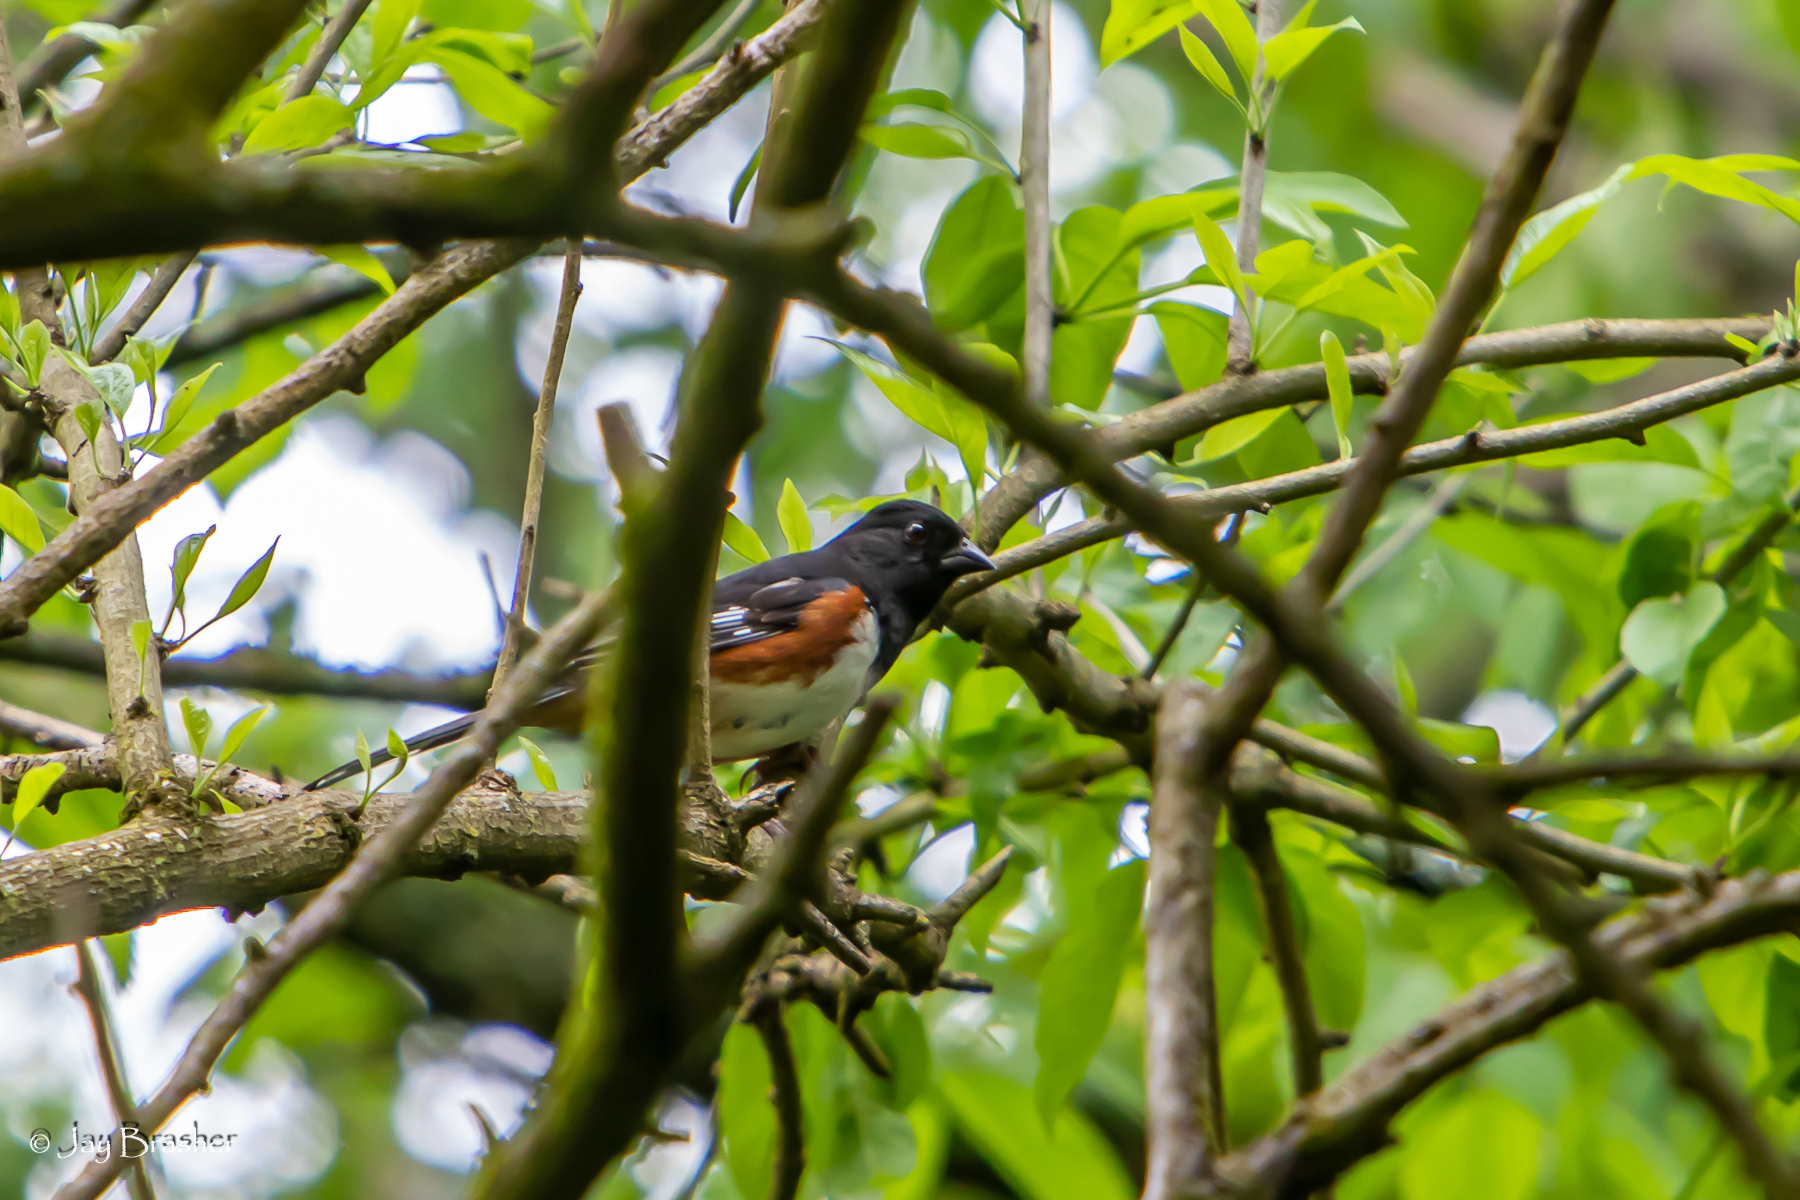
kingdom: Animalia
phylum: Chordata
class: Aves
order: Passeriformes
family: Passerellidae
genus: Pipilo
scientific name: Pipilo erythrophthalmus
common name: Eastern towhee
